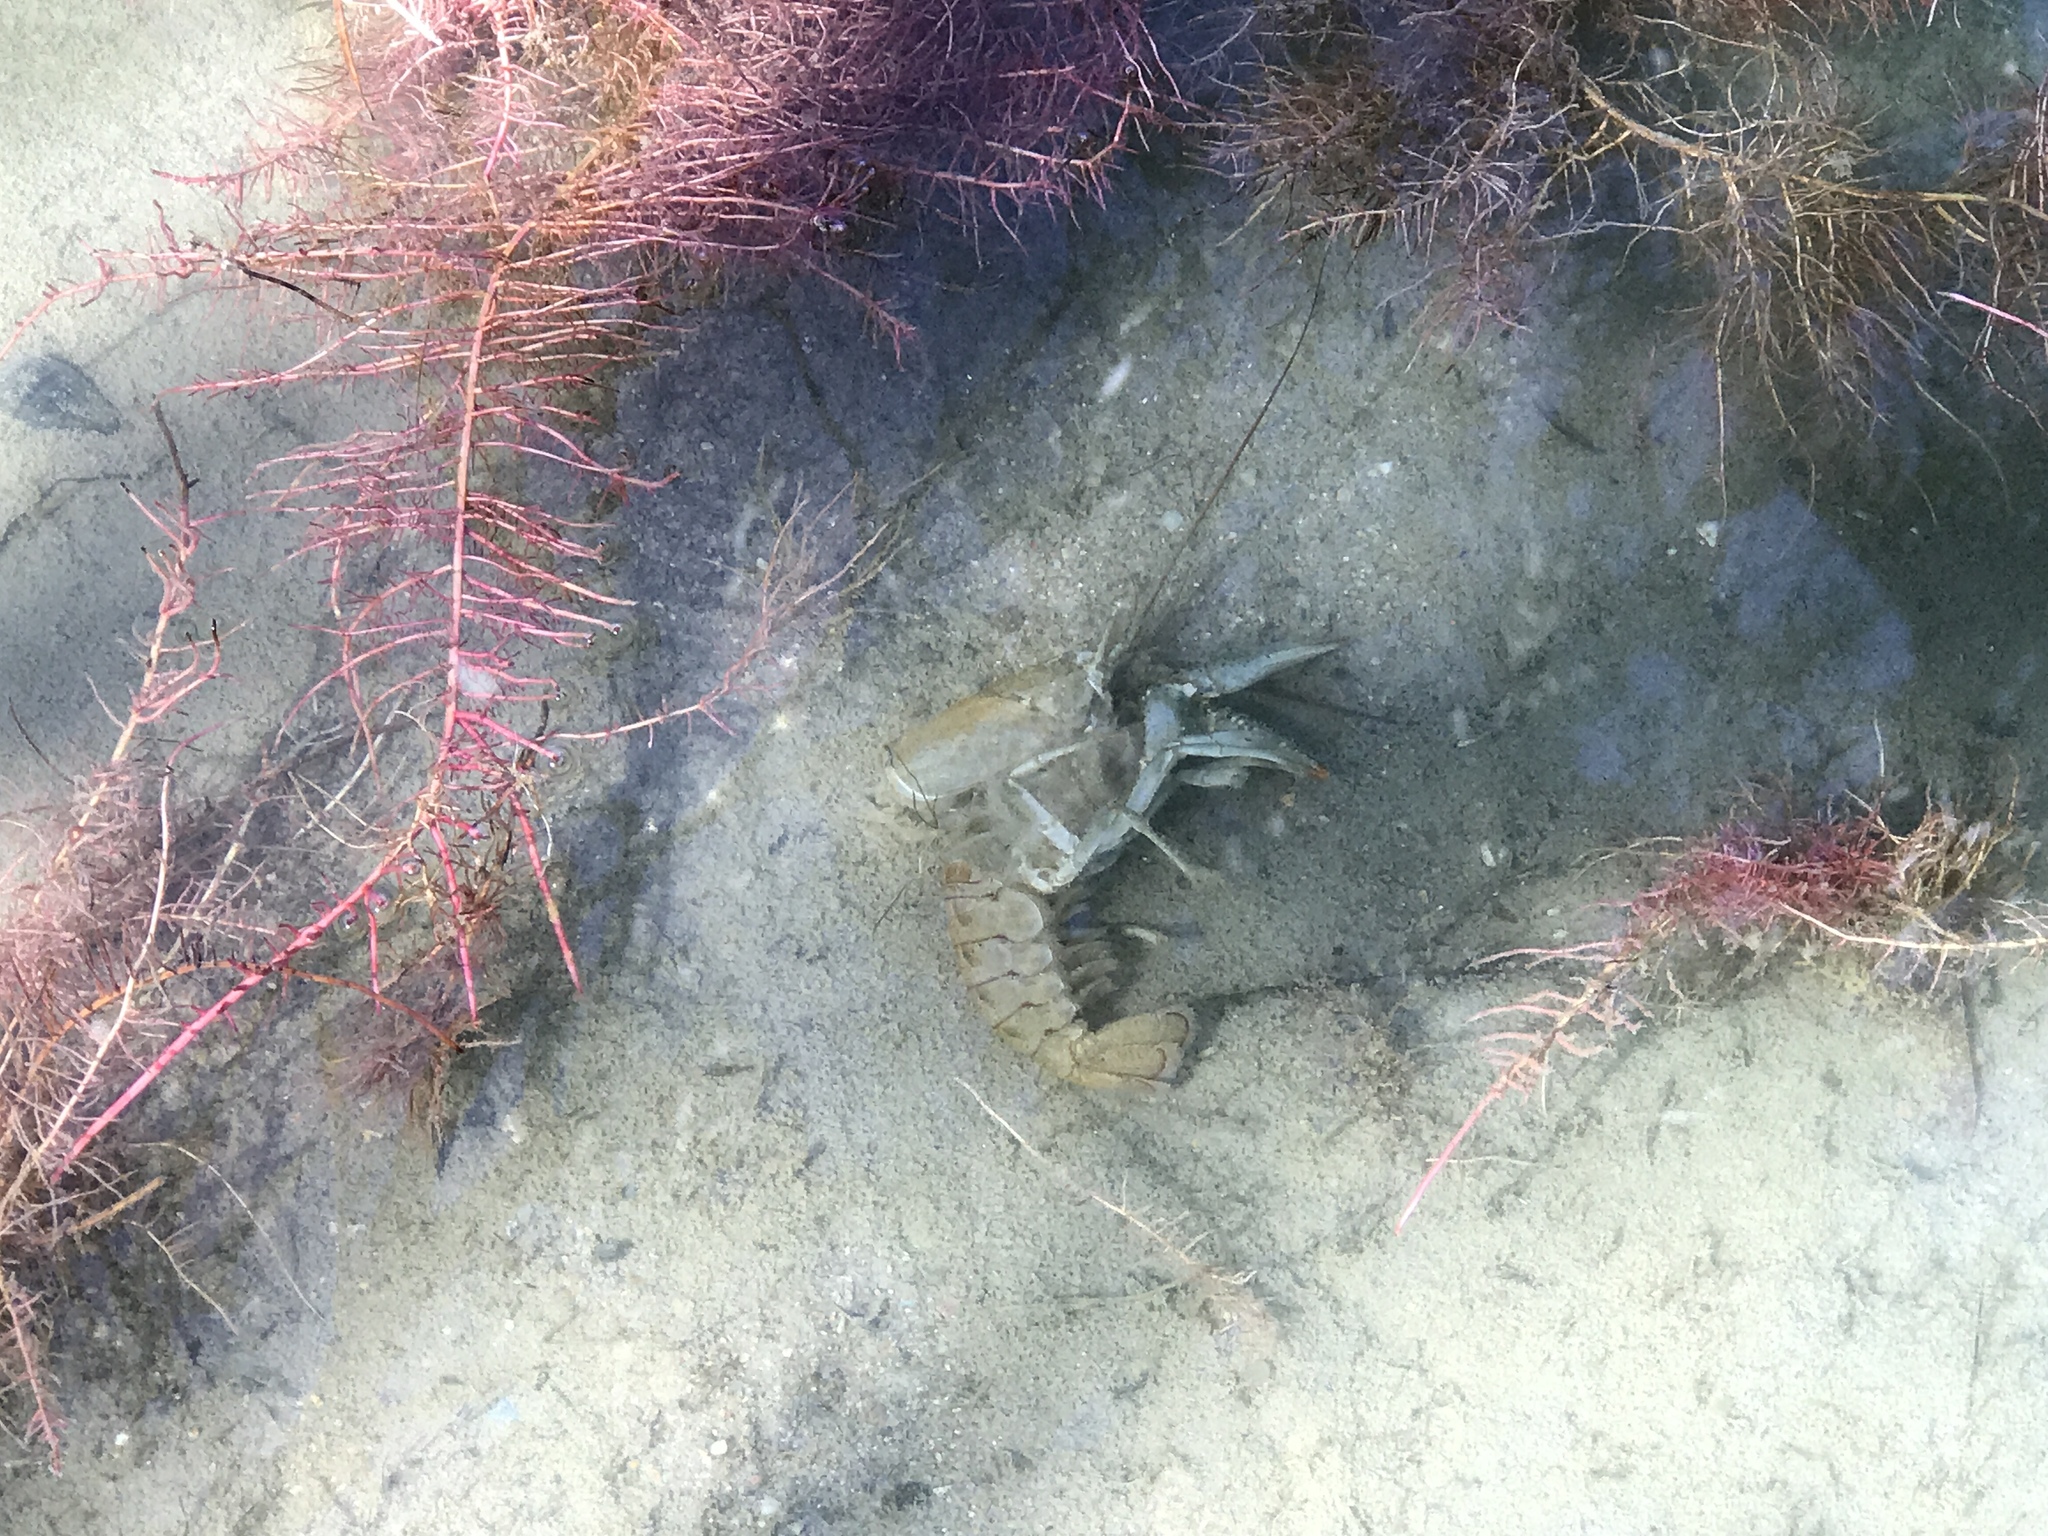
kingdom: Animalia
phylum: Arthropoda
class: Malacostraca
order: Decapoda
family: Cambaridae
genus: Faxonius
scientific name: Faxonius virilis
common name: Virile crayfish
